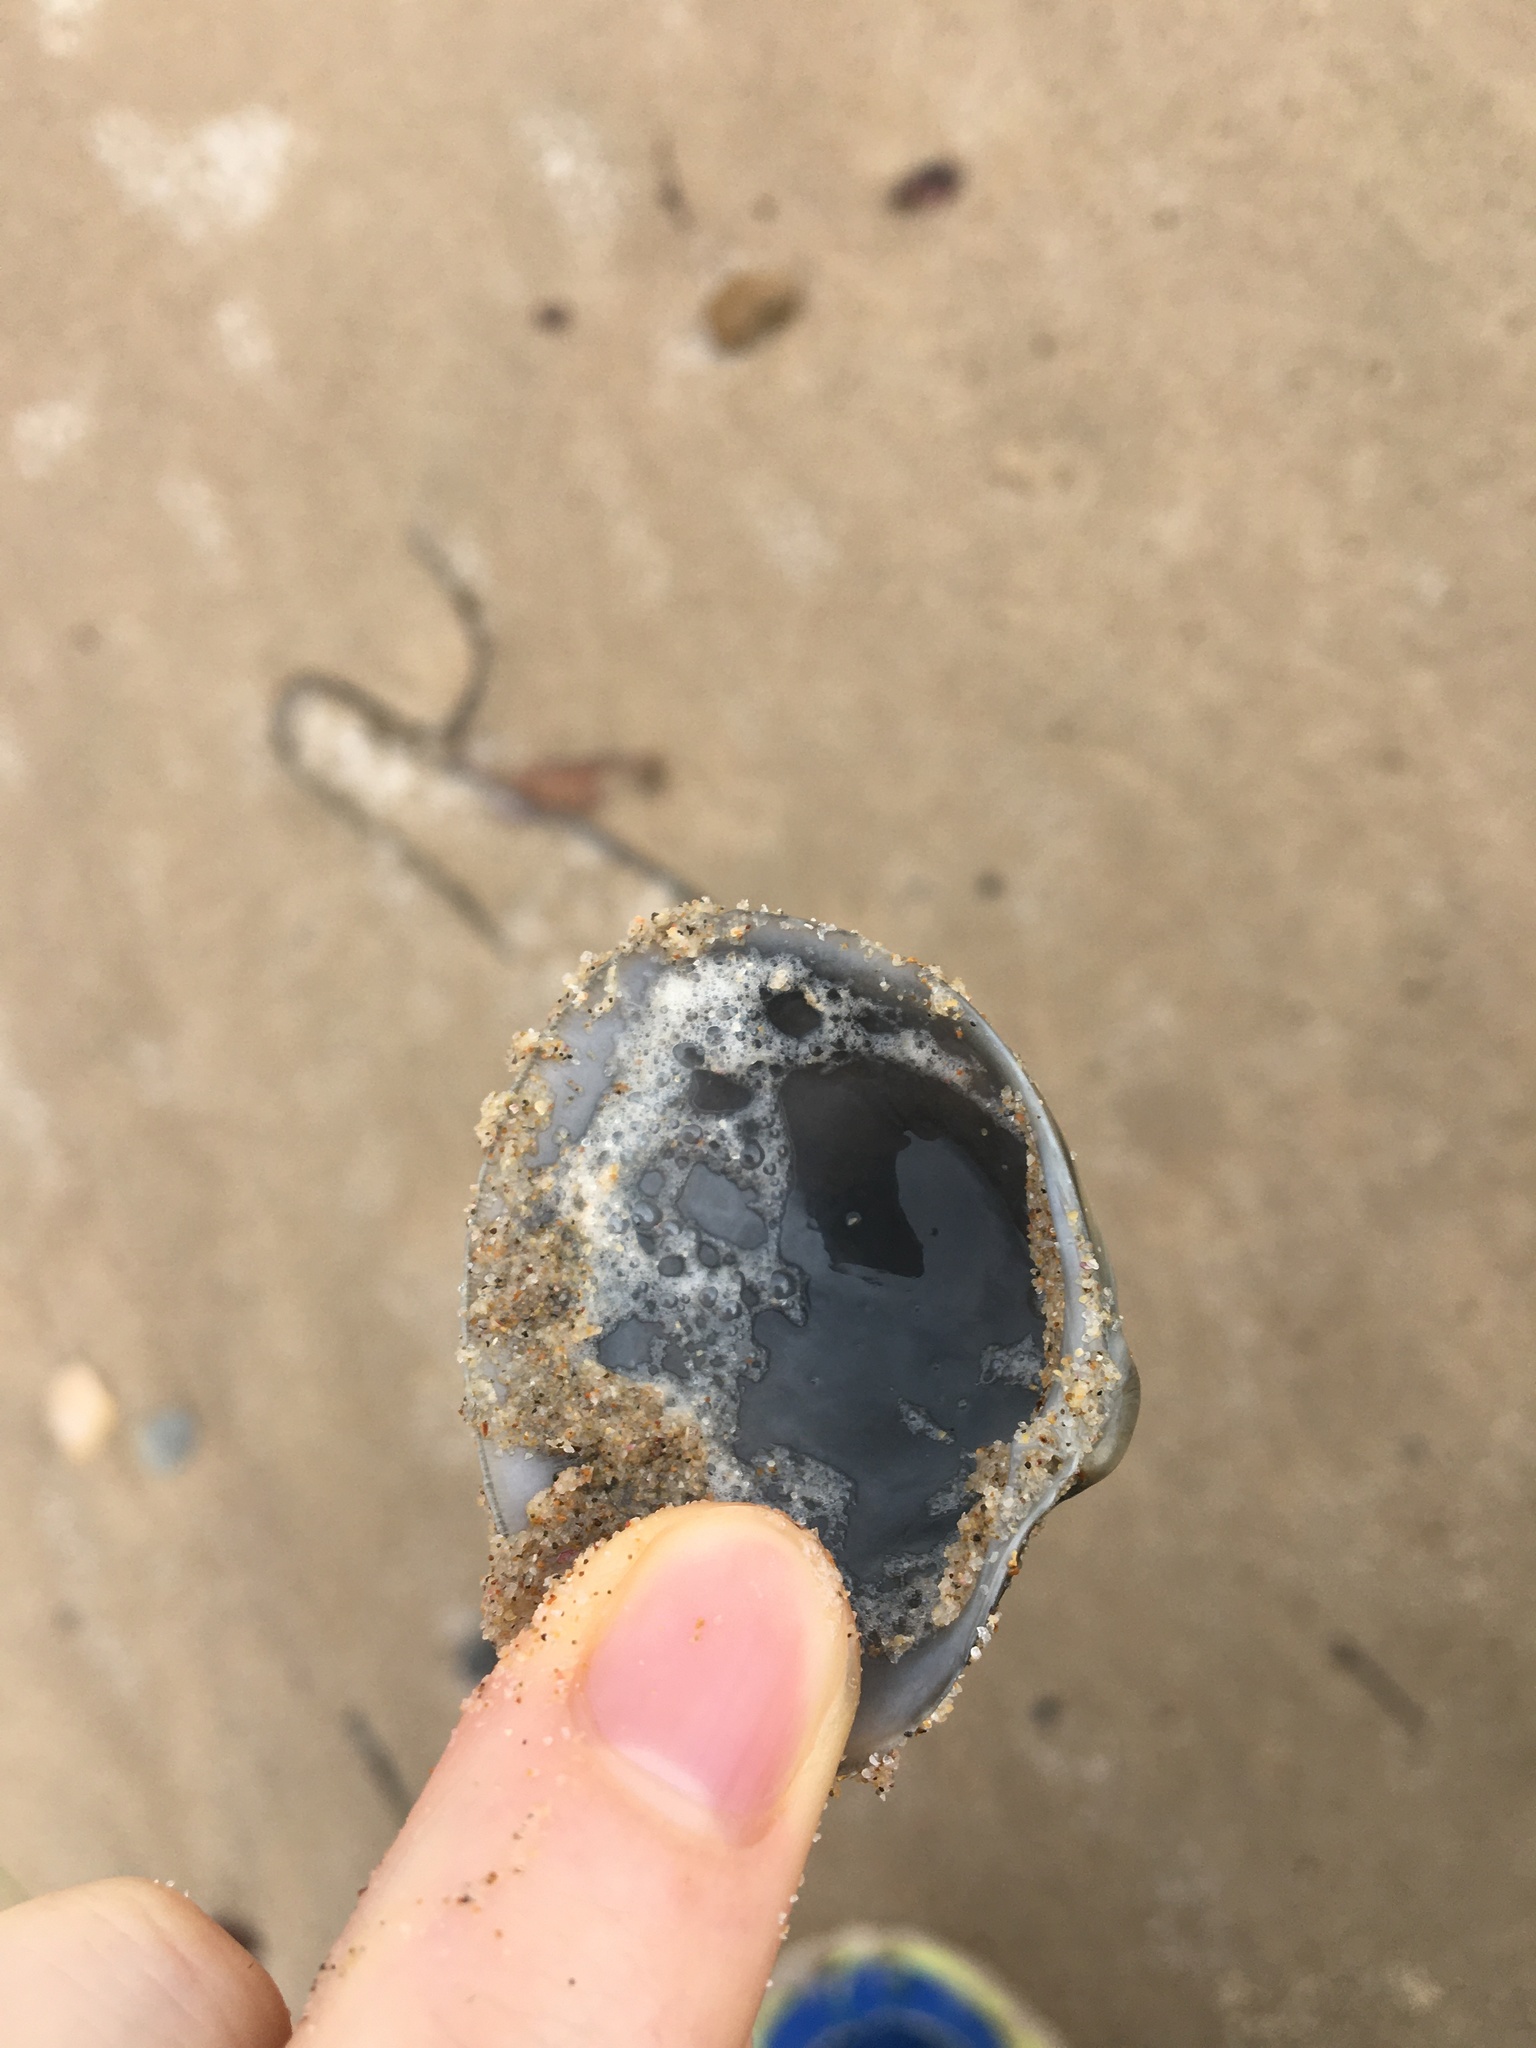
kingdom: Animalia
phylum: Mollusca
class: Bivalvia
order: Venerida
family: Veneridae
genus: Bassina
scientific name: Bassina pachyphylla
